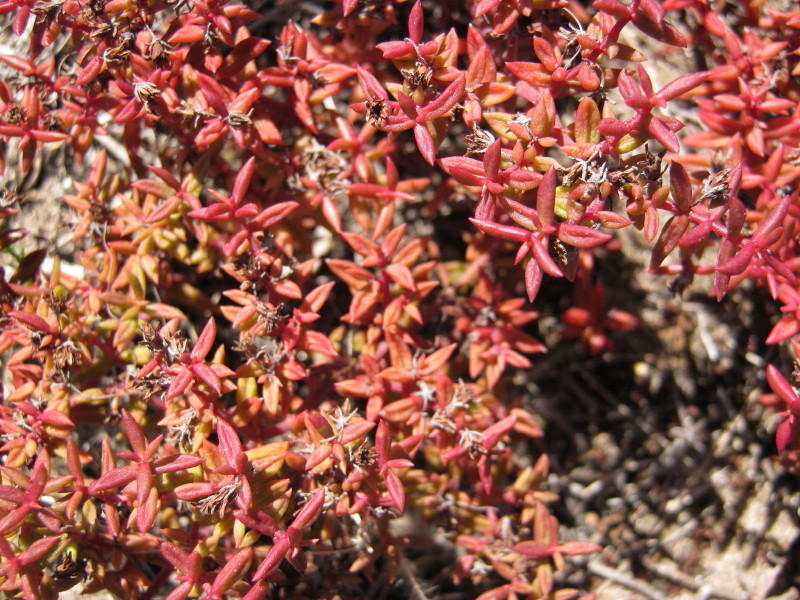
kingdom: Plantae
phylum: Tracheophyta
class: Magnoliopsida
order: Saxifragales
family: Crassulaceae
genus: Crassula
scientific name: Crassula expansa
